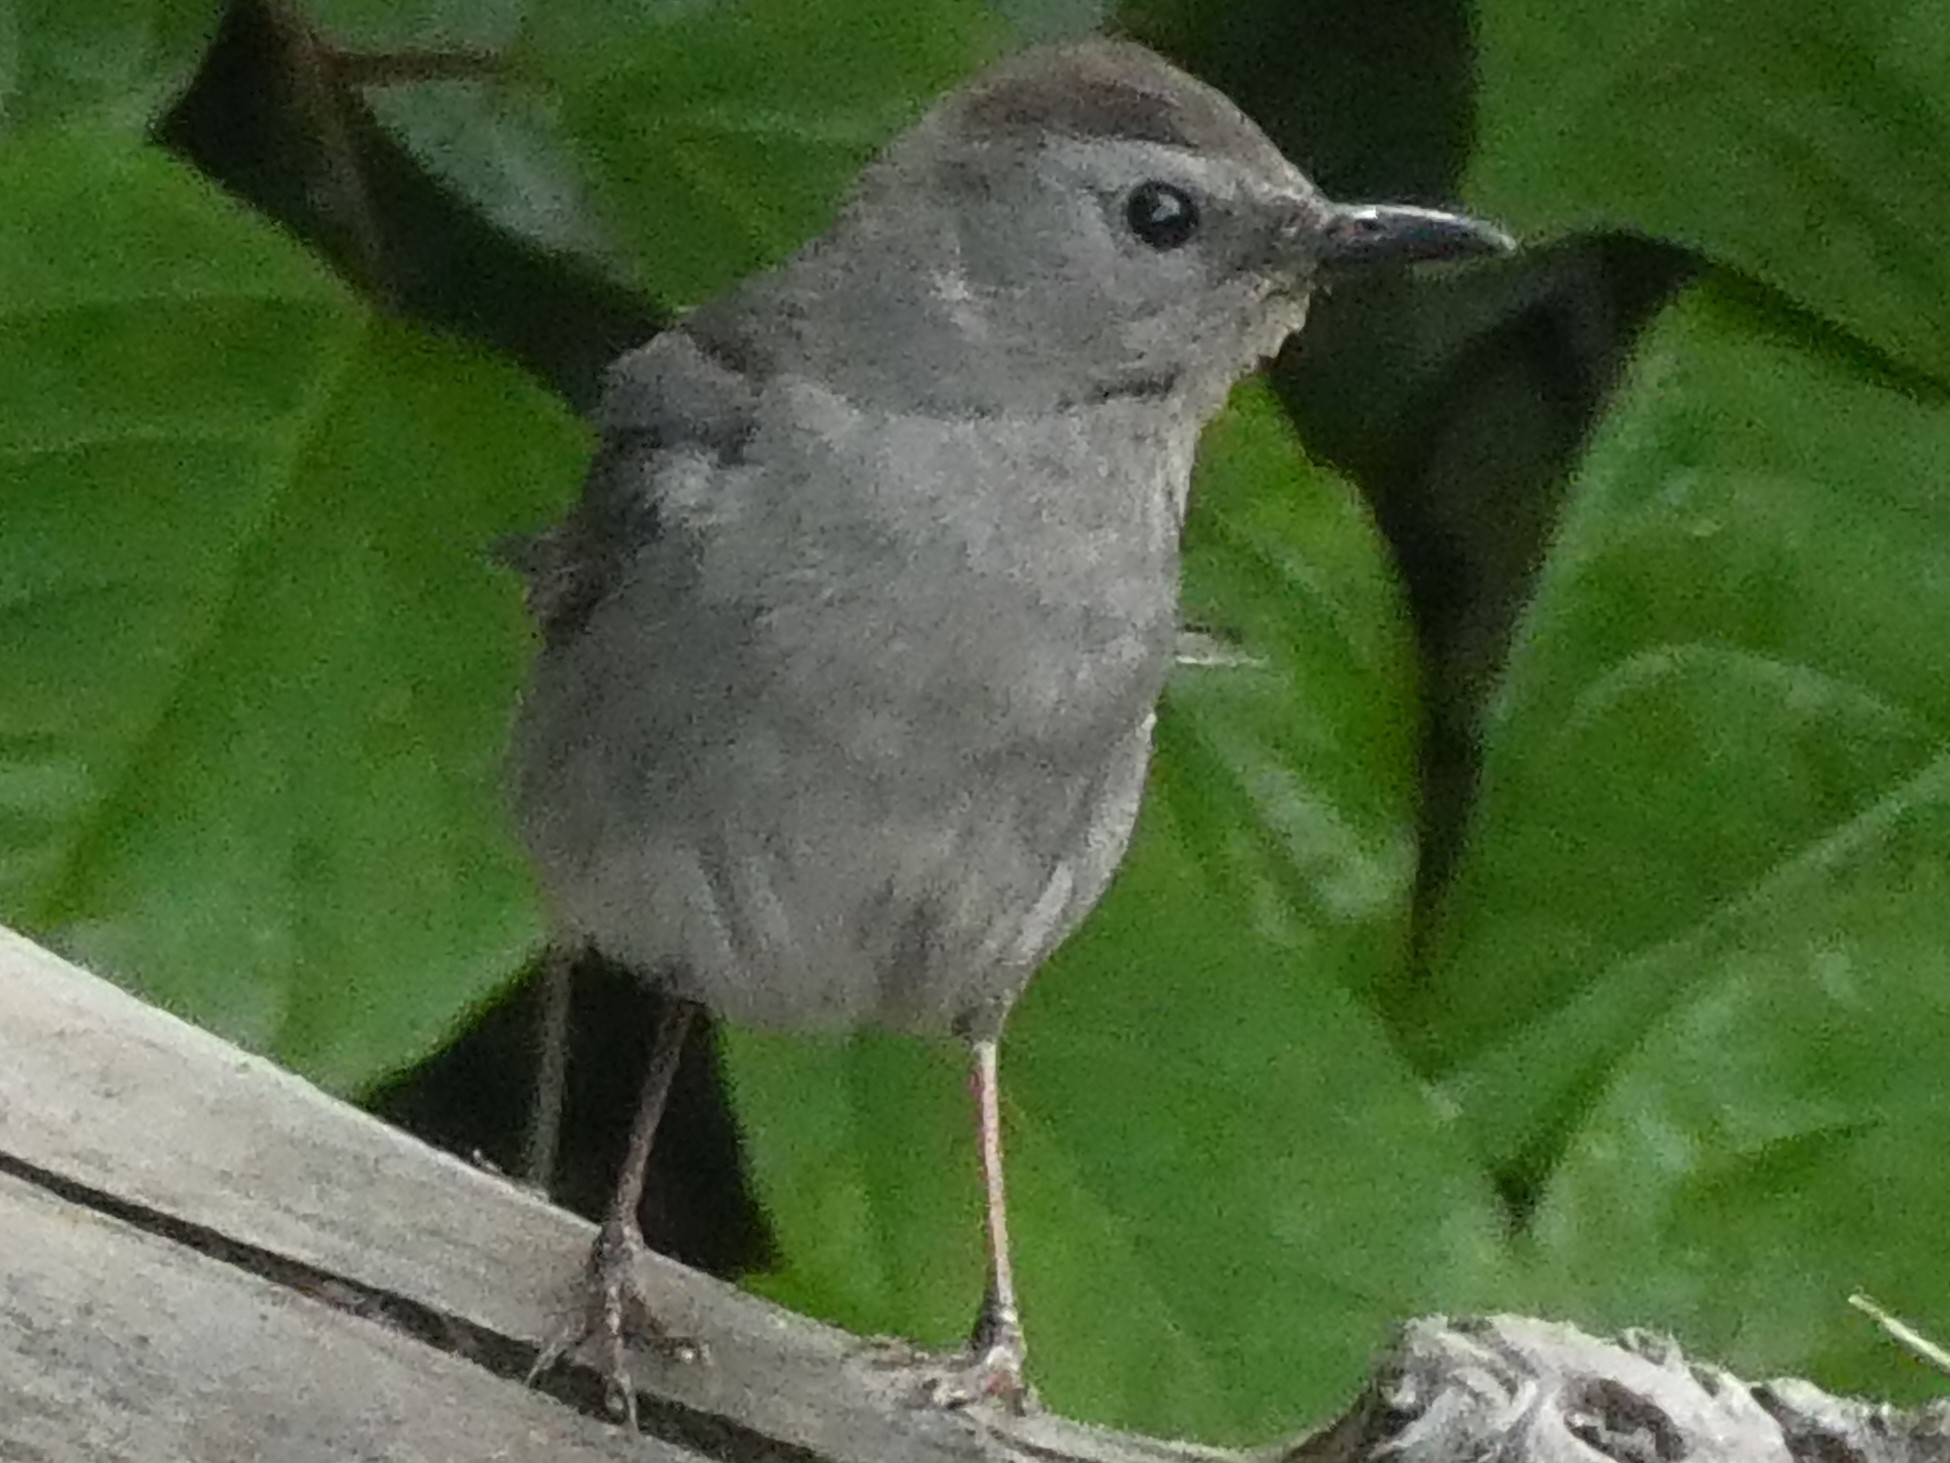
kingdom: Animalia
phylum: Chordata
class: Aves
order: Passeriformes
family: Mimidae
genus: Dumetella
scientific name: Dumetella carolinensis
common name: Gray catbird
